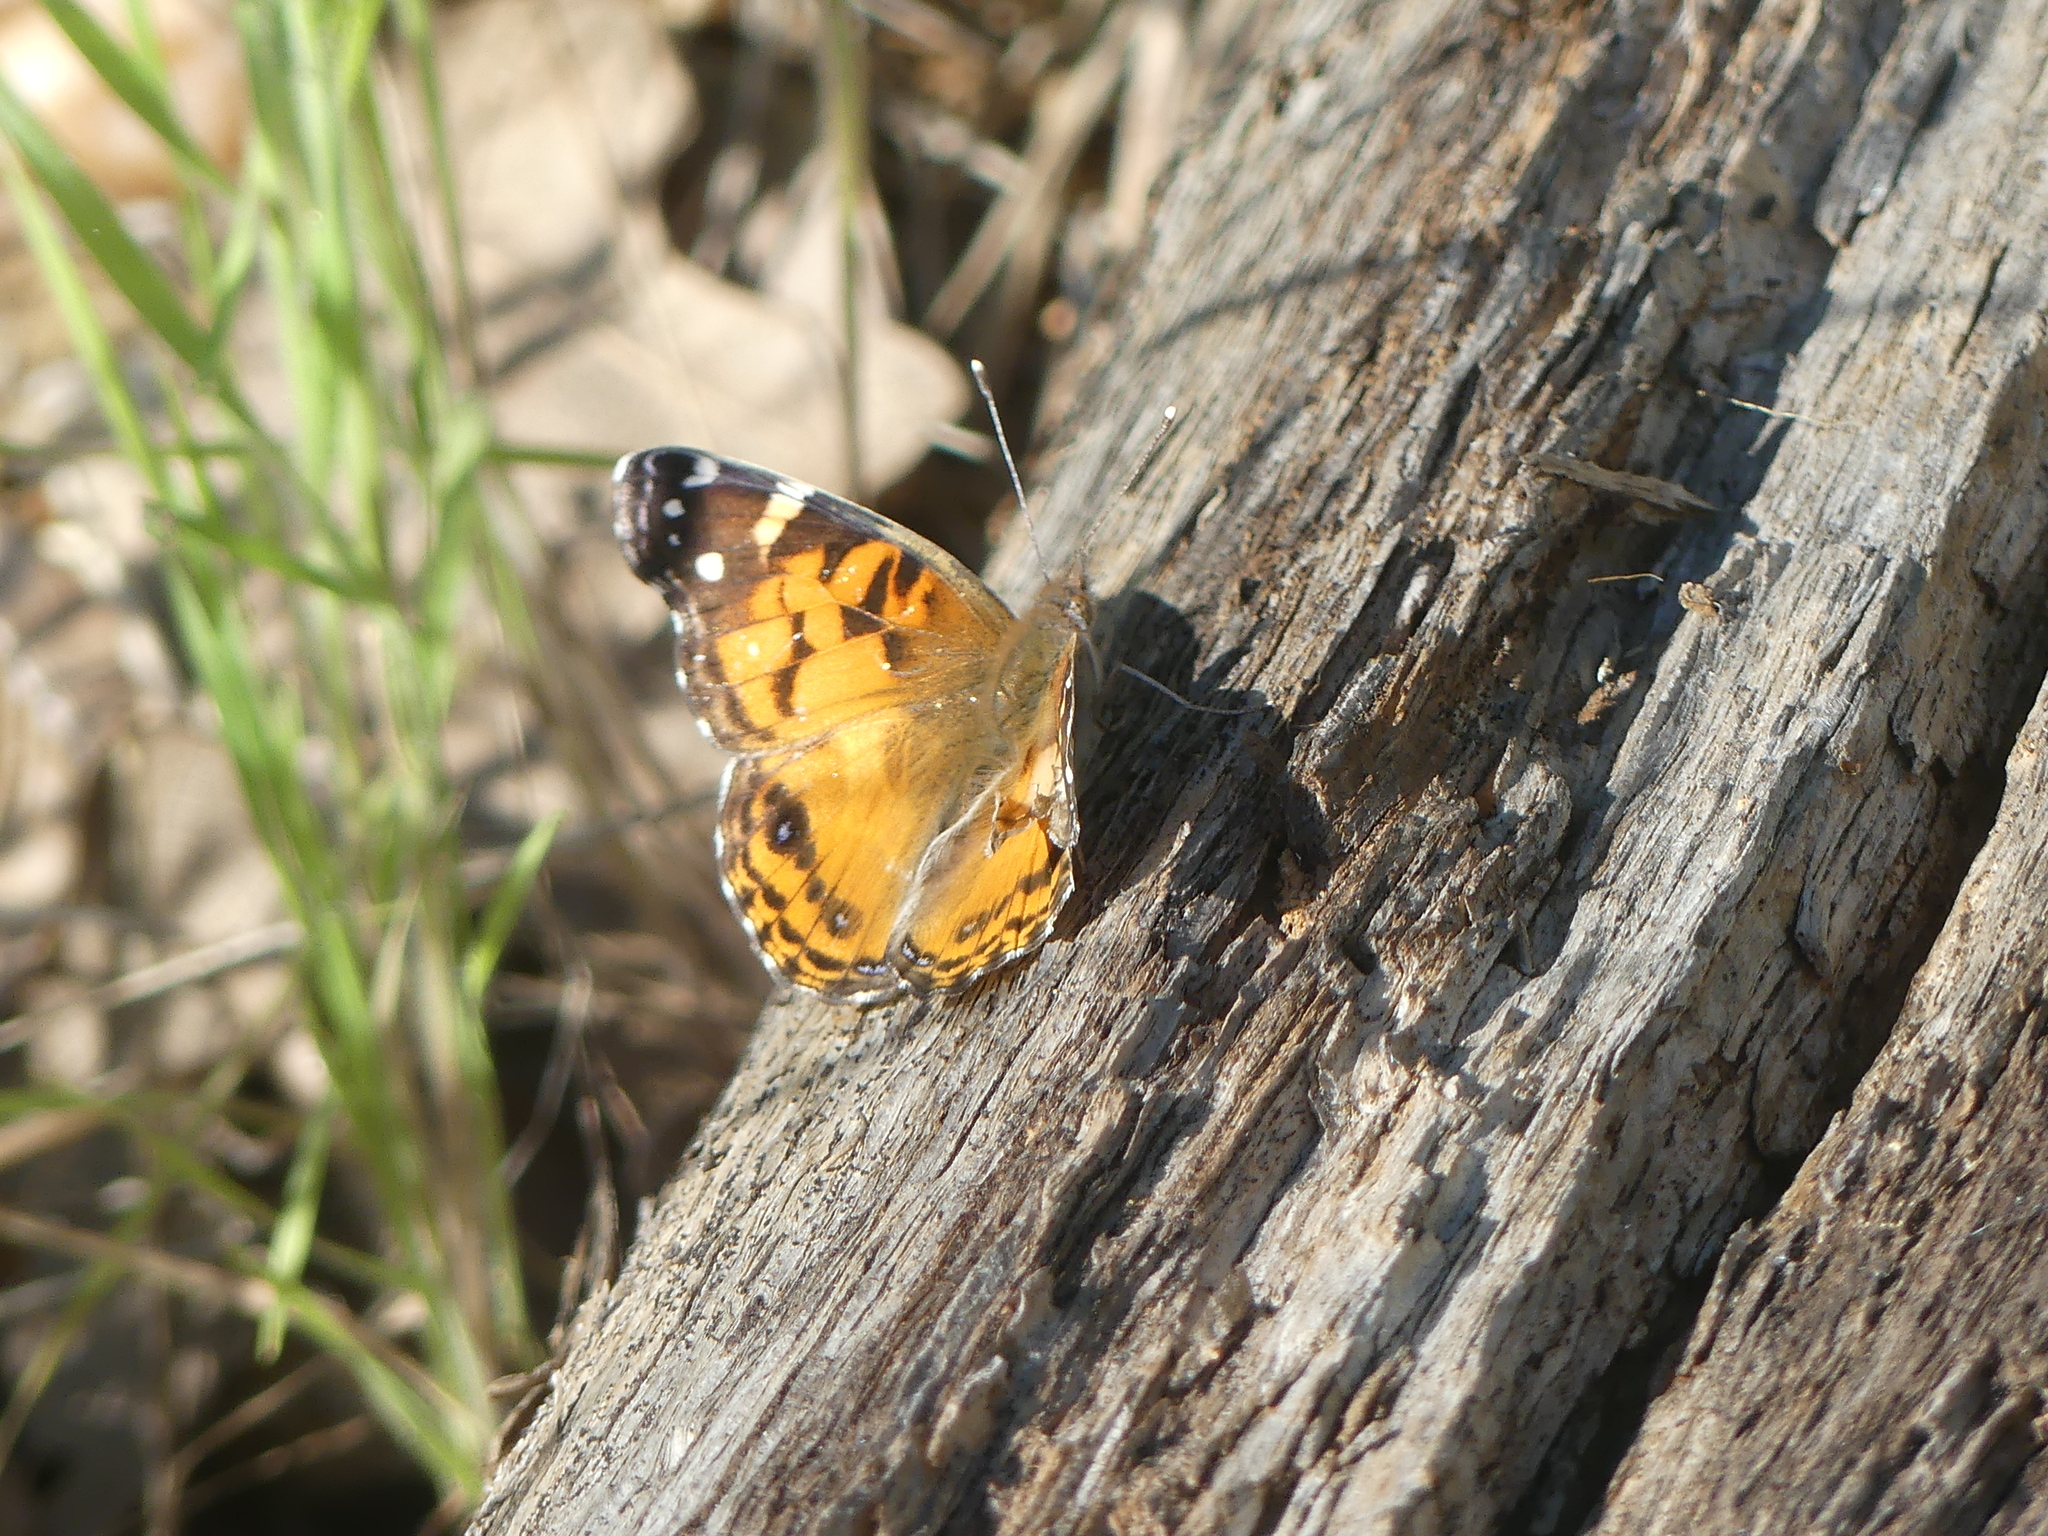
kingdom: Animalia
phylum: Arthropoda
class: Insecta
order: Lepidoptera
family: Nymphalidae
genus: Vanessa
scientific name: Vanessa virginiensis
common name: American lady
